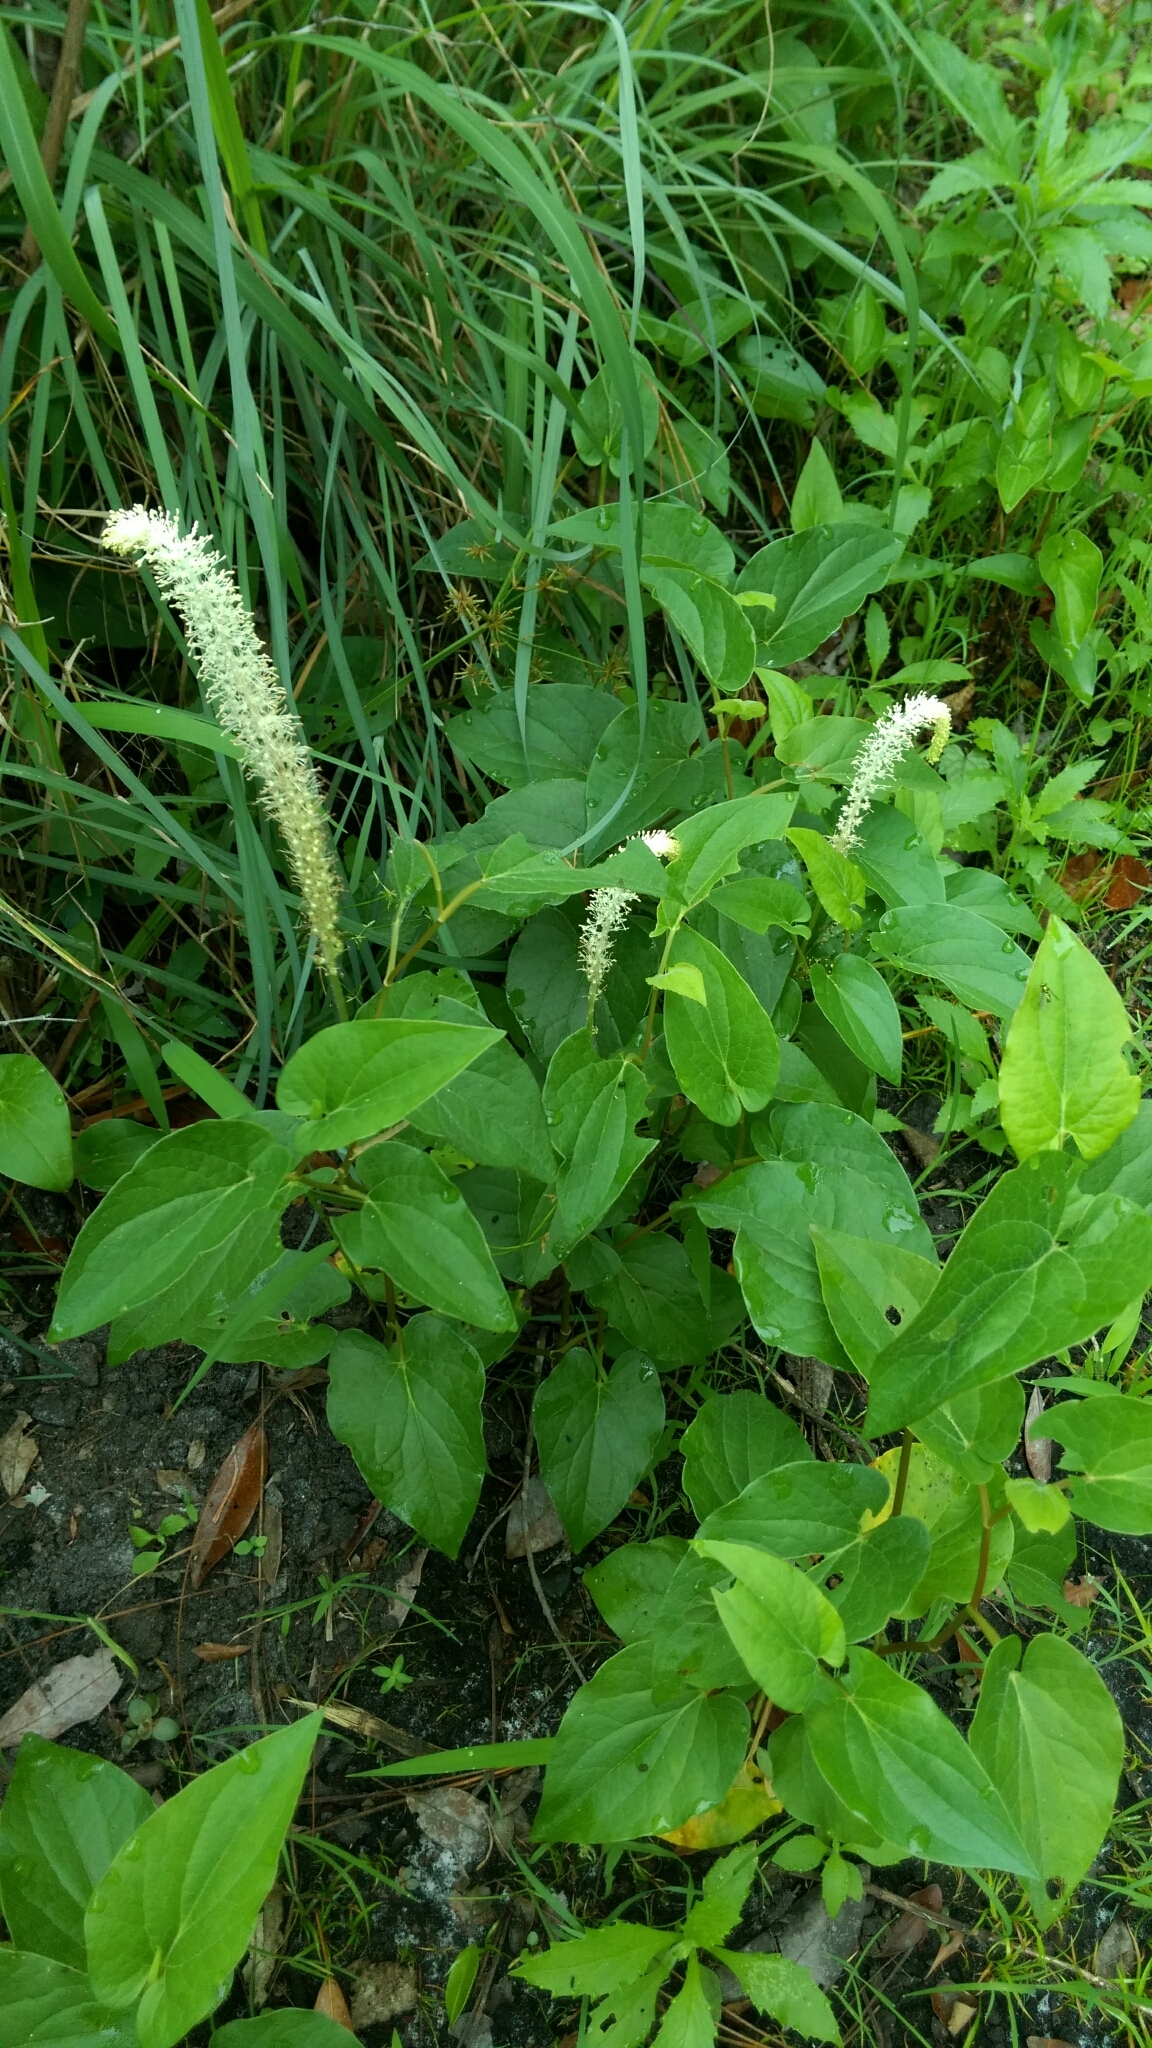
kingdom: Plantae
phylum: Tracheophyta
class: Magnoliopsida
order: Piperales
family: Saururaceae
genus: Saururus
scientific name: Saururus cernuus
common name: Lizard's-tail
